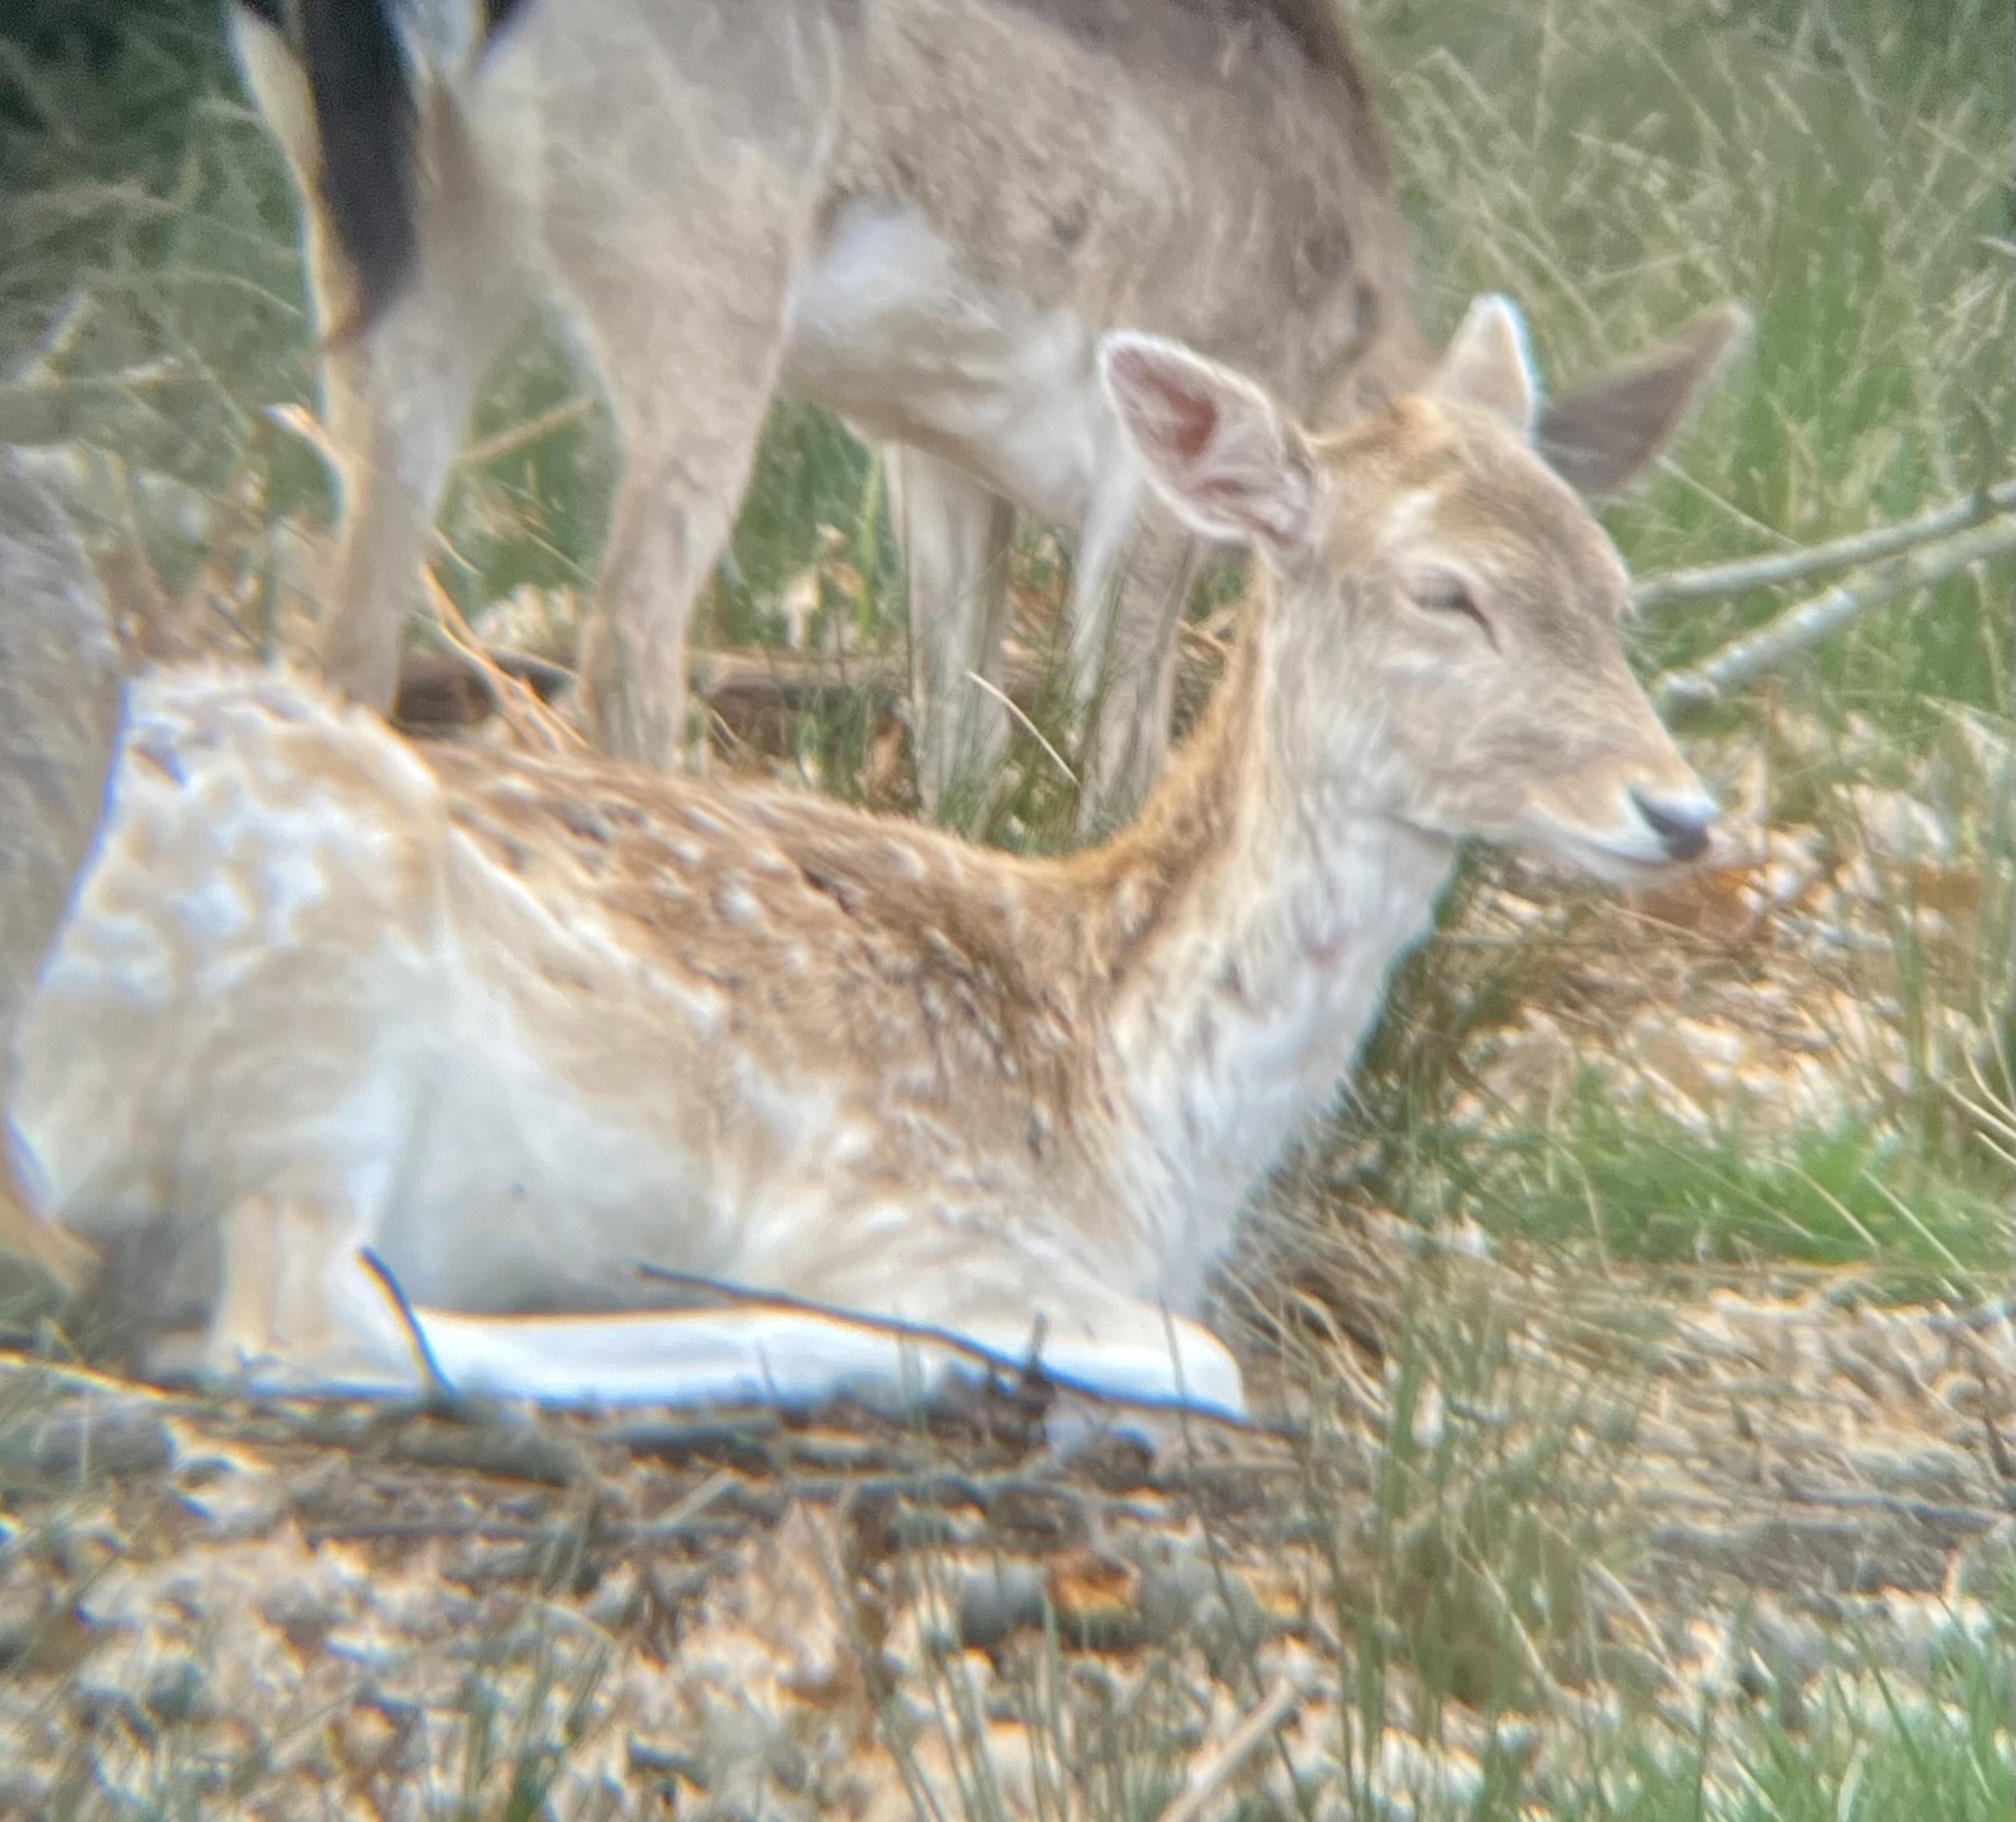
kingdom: Animalia
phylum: Chordata
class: Mammalia
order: Artiodactyla
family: Cervidae
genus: Dama
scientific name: Dama dama
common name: Fallow deer
